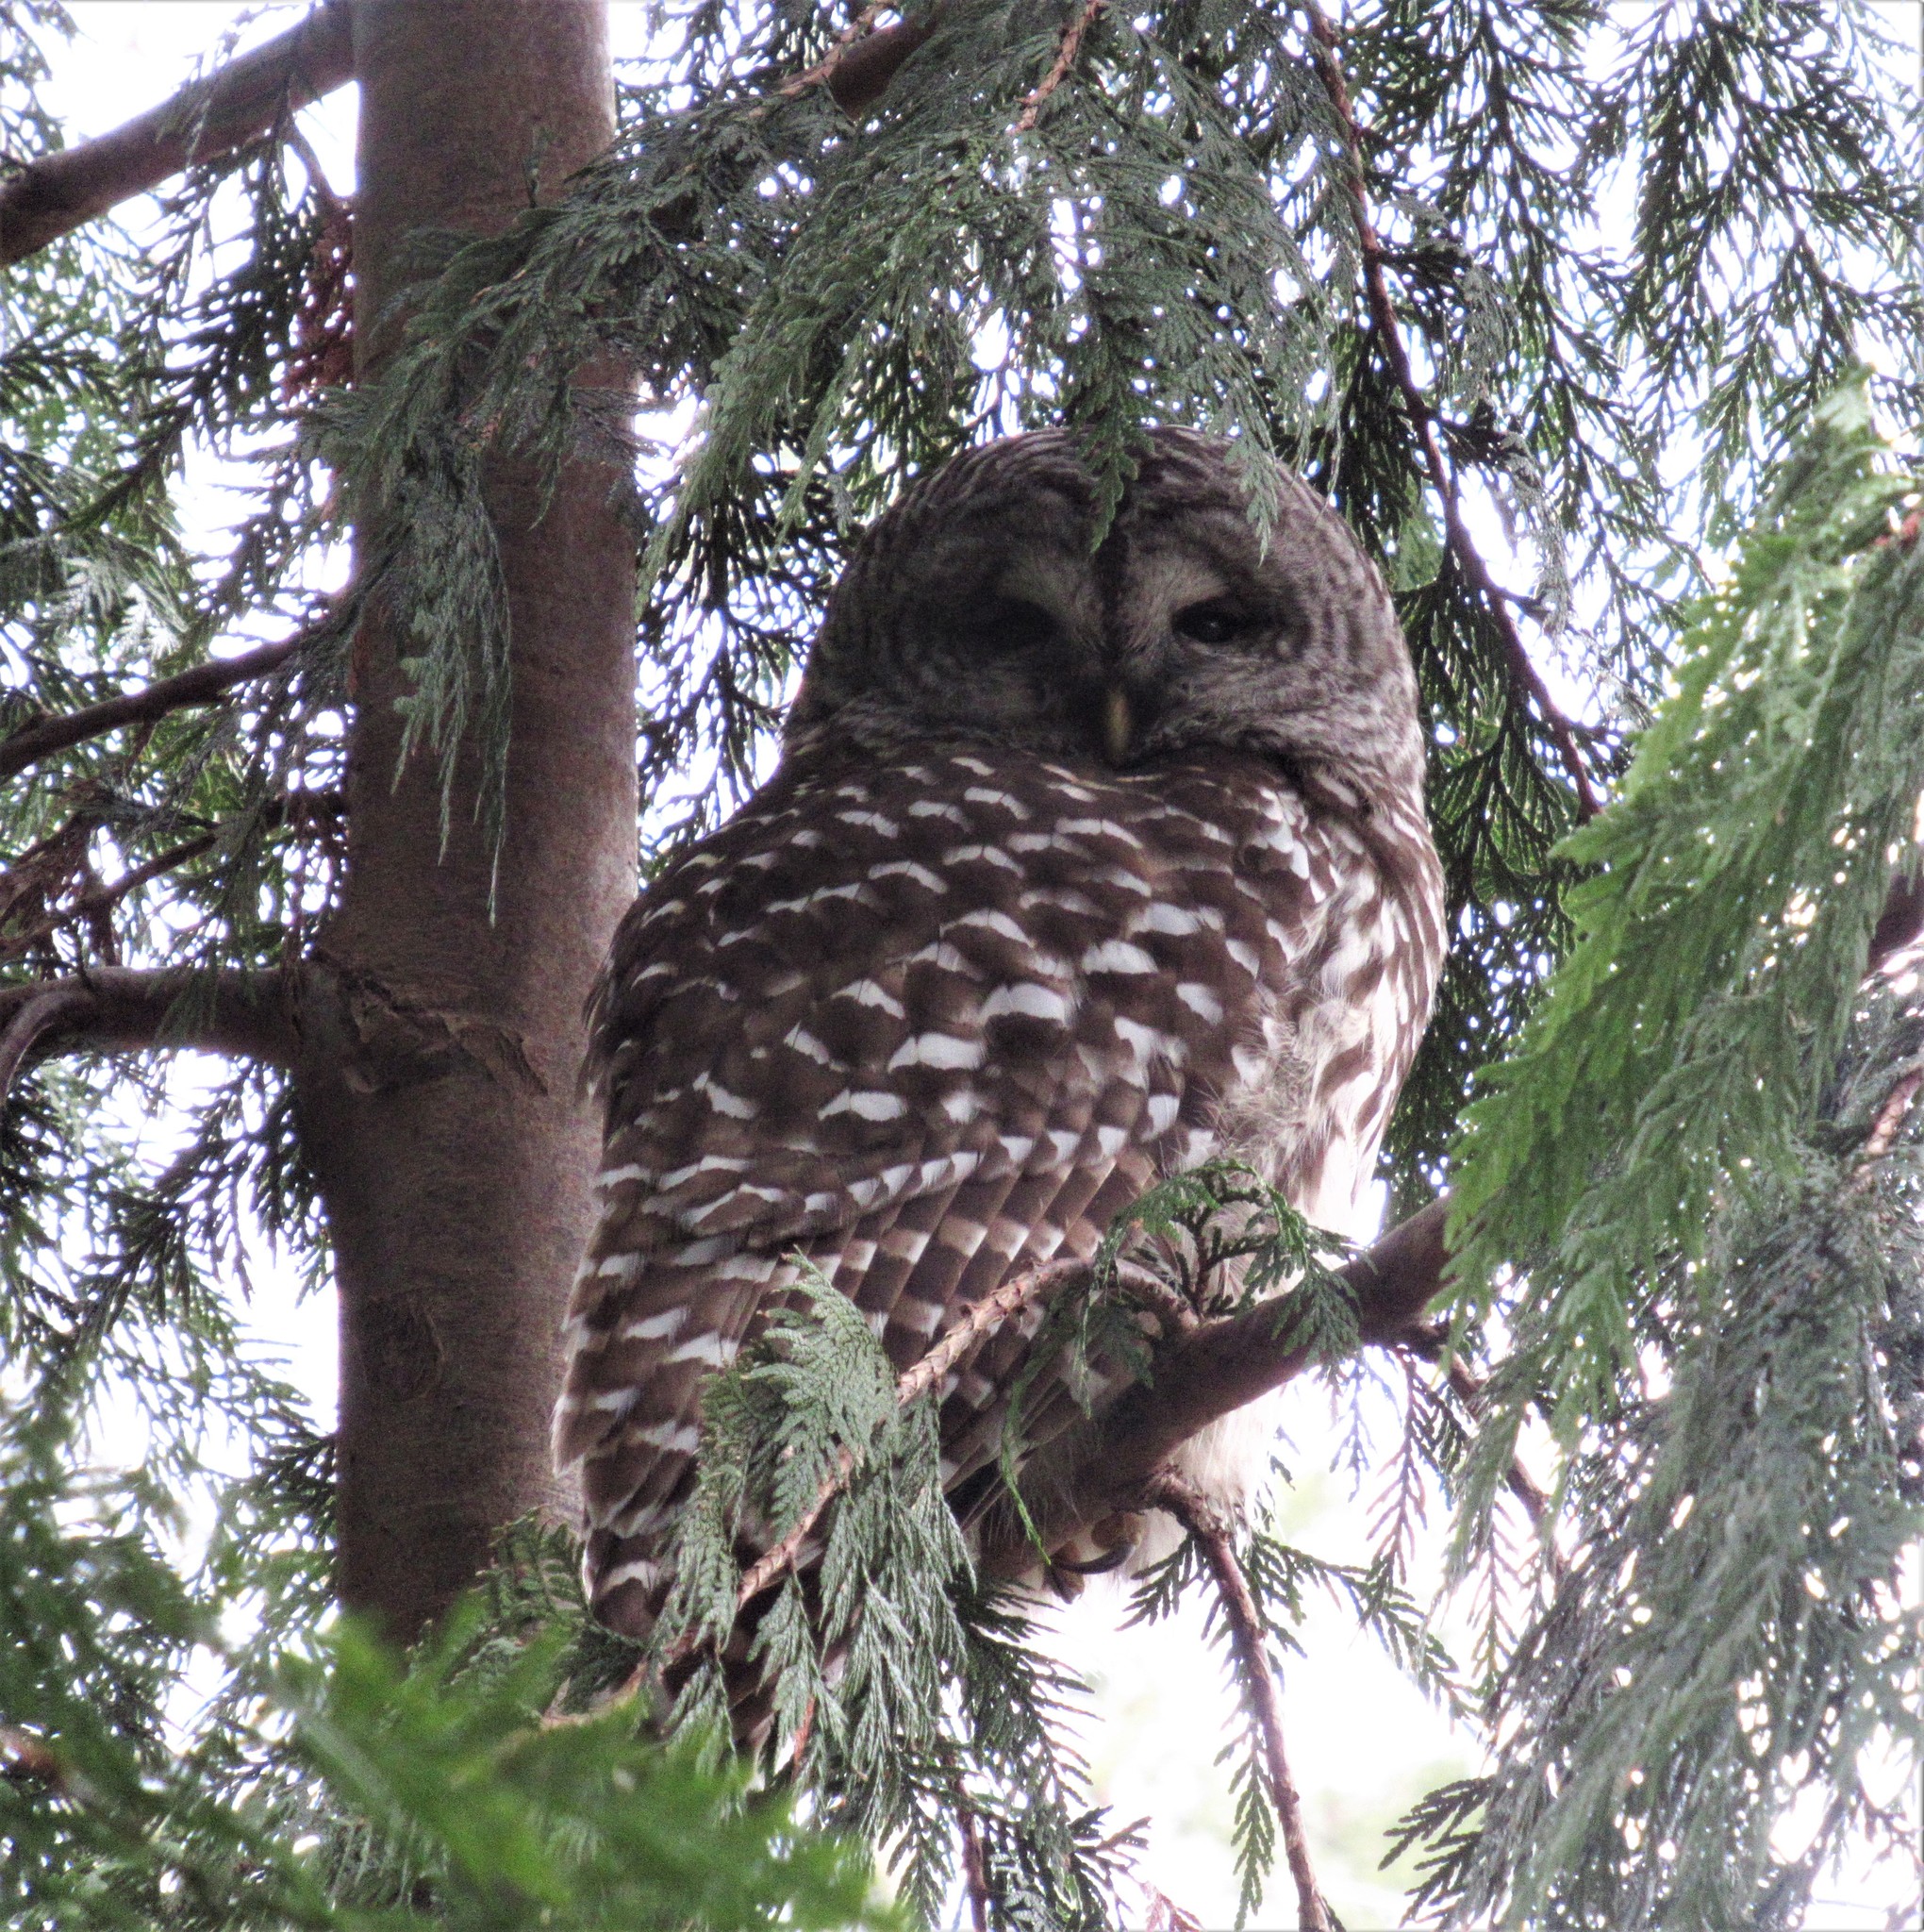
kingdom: Animalia
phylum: Chordata
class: Aves
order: Strigiformes
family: Strigidae
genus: Strix
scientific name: Strix varia
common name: Barred owl
